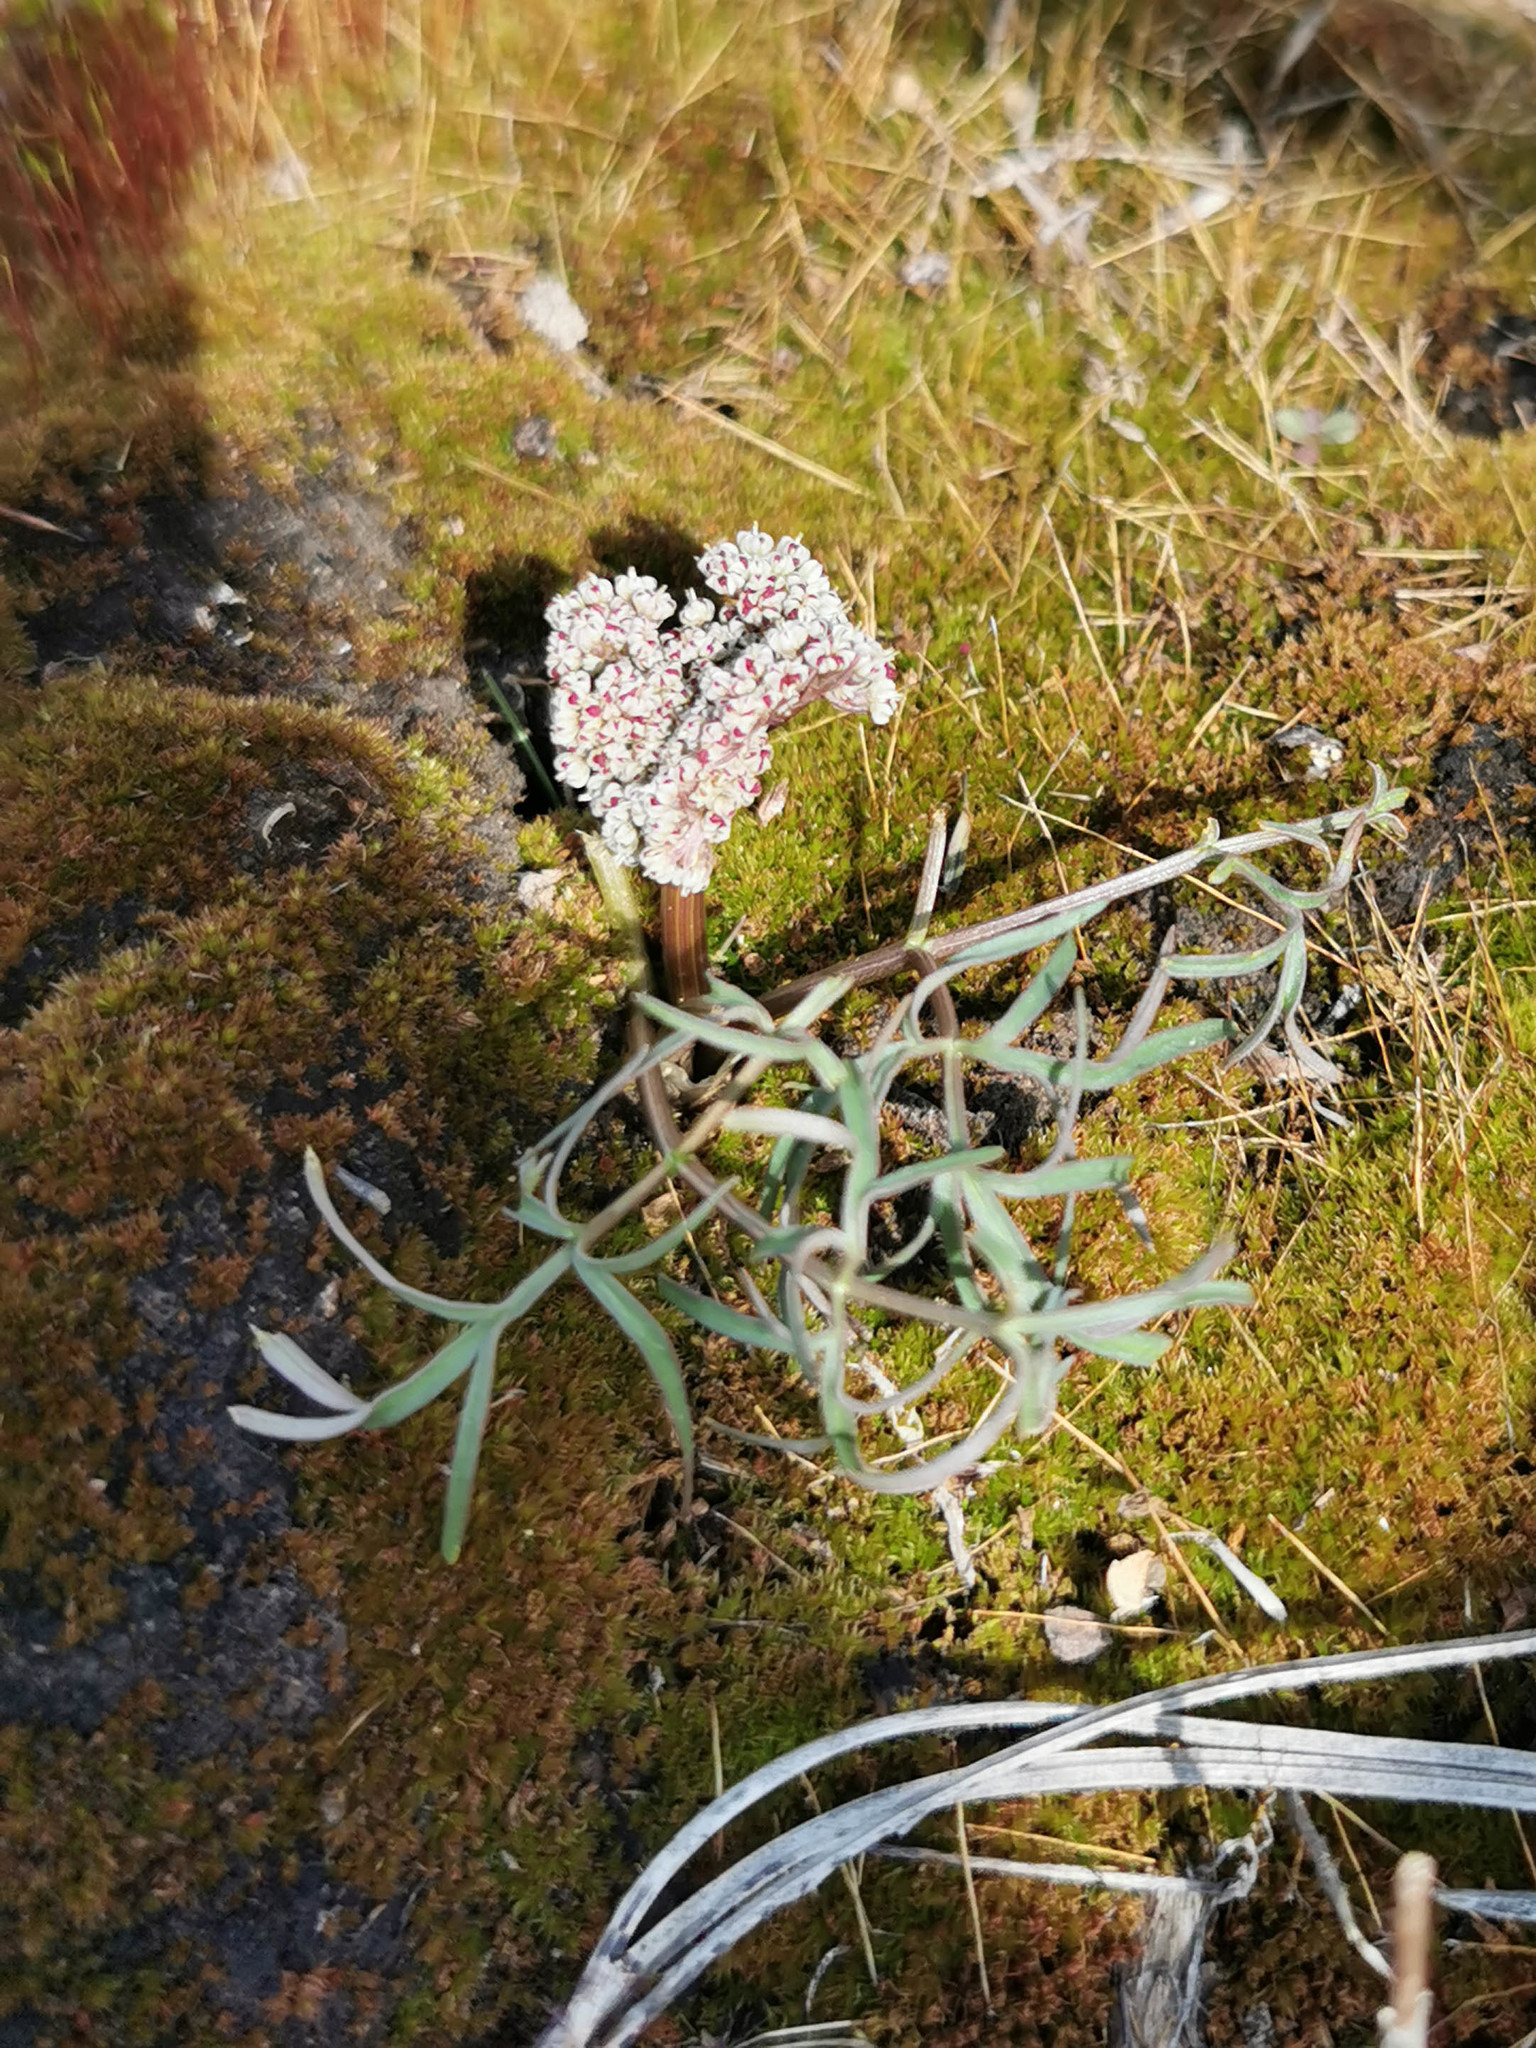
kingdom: Plantae
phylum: Tracheophyta
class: Magnoliopsida
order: Apiales
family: Apiaceae
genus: Lomatium
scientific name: Lomatium geyeri
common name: Geyer's biscuitroot
